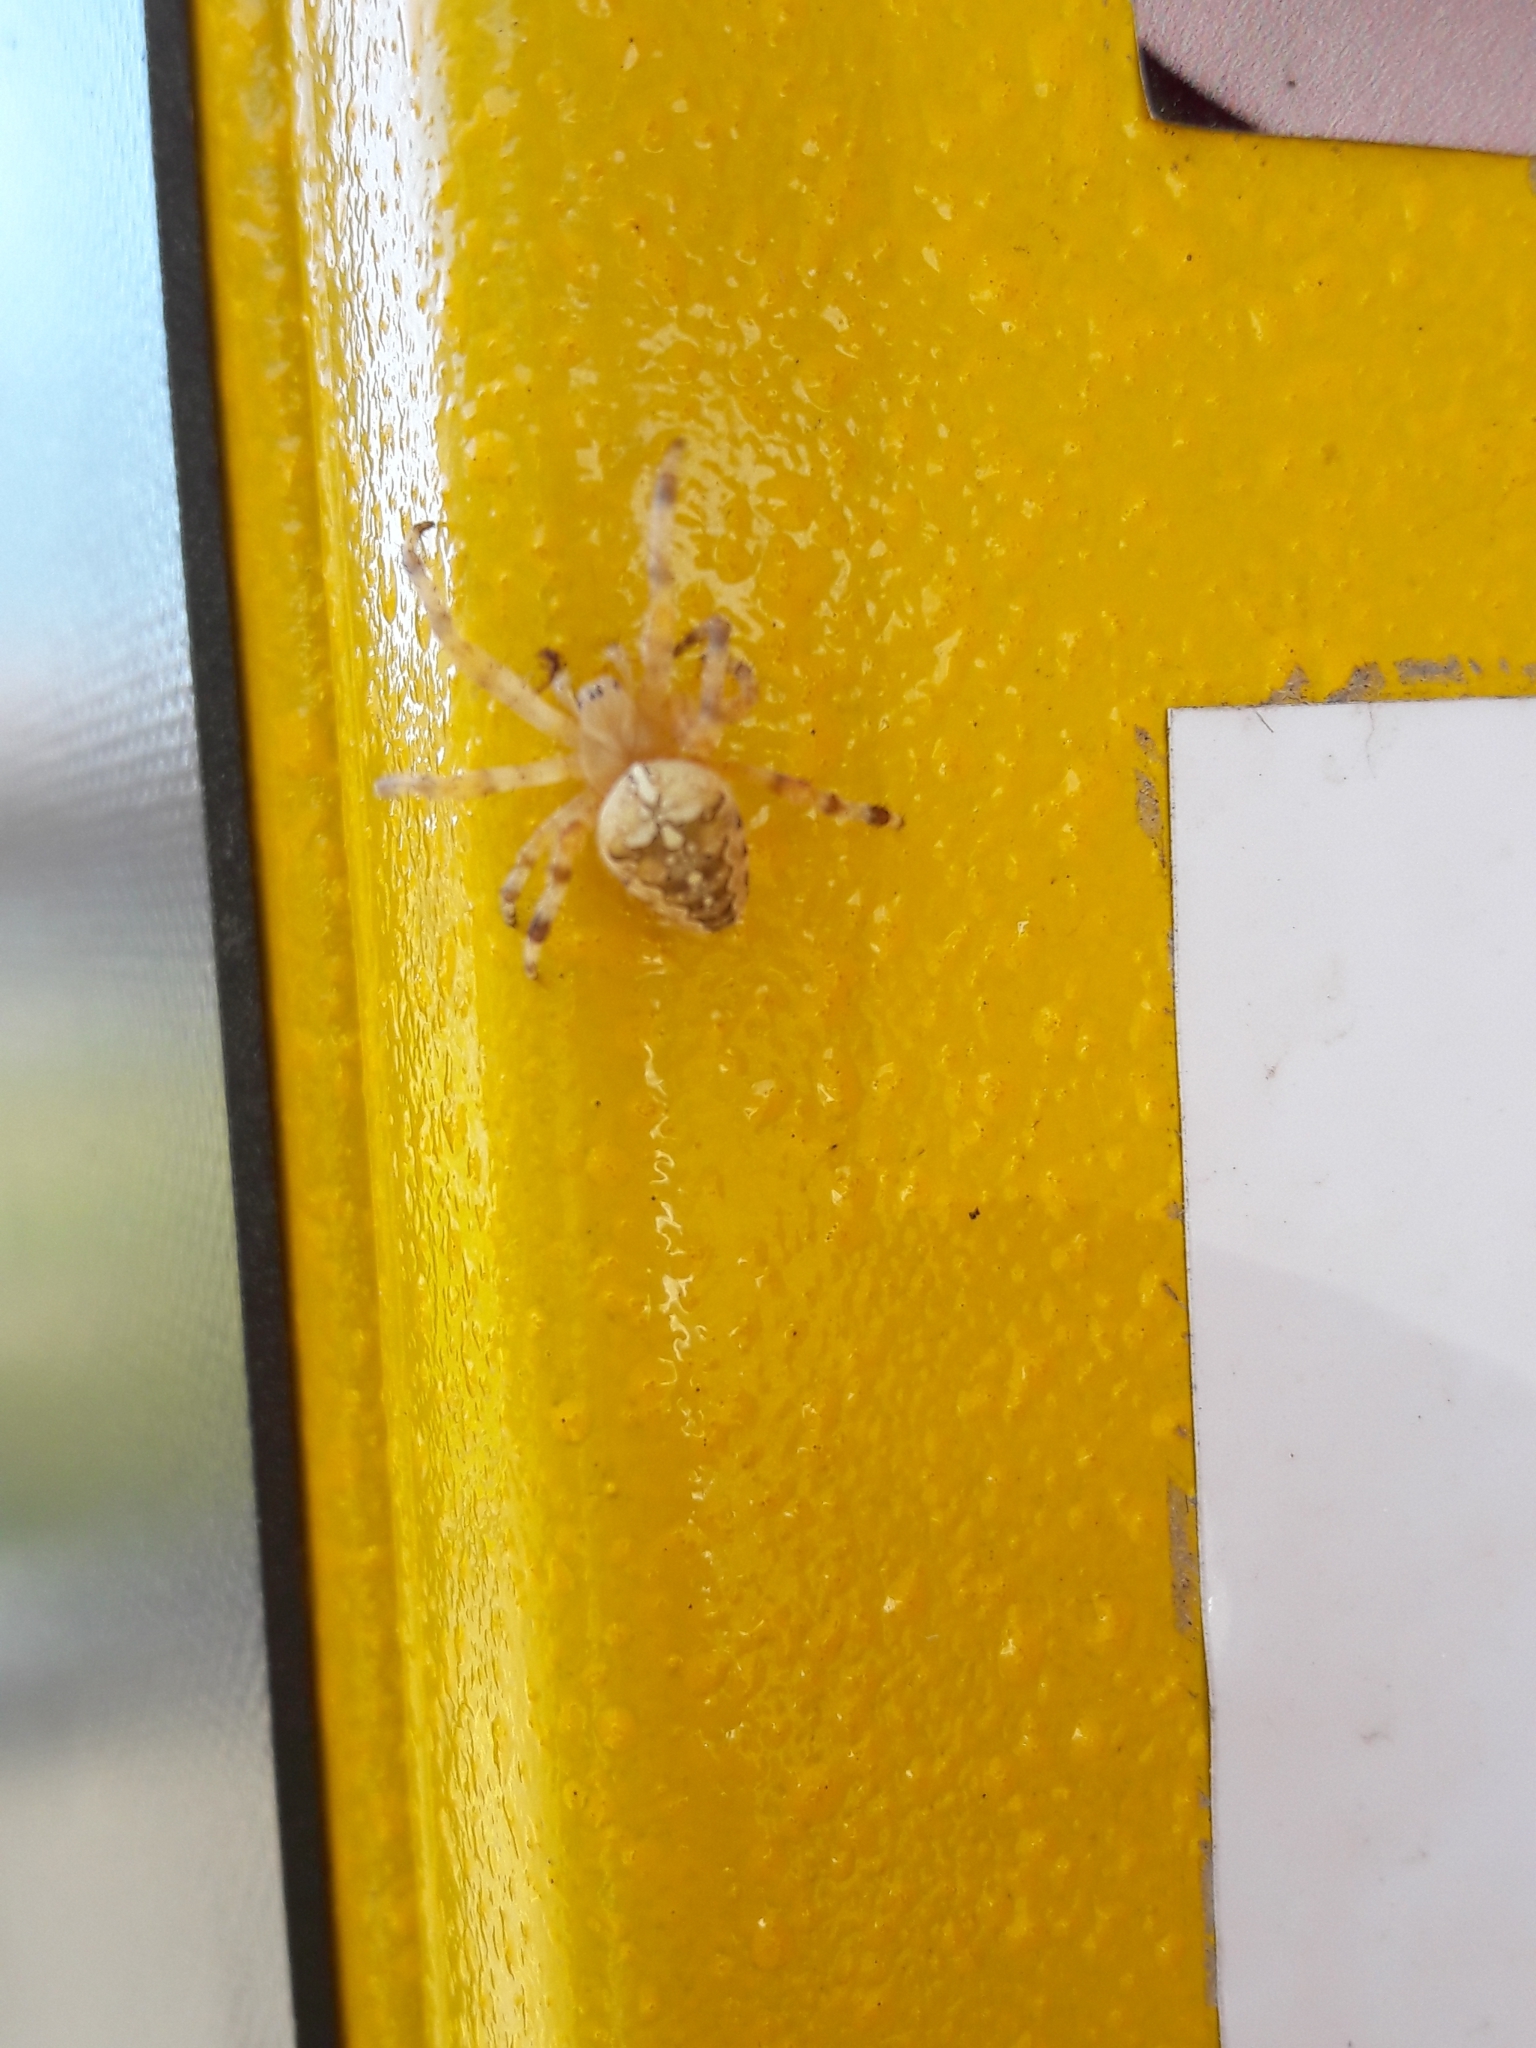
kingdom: Animalia
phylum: Arthropoda
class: Arachnida
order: Araneae
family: Araneidae
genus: Araneus
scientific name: Araneus diadematus
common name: Cross orbweaver
